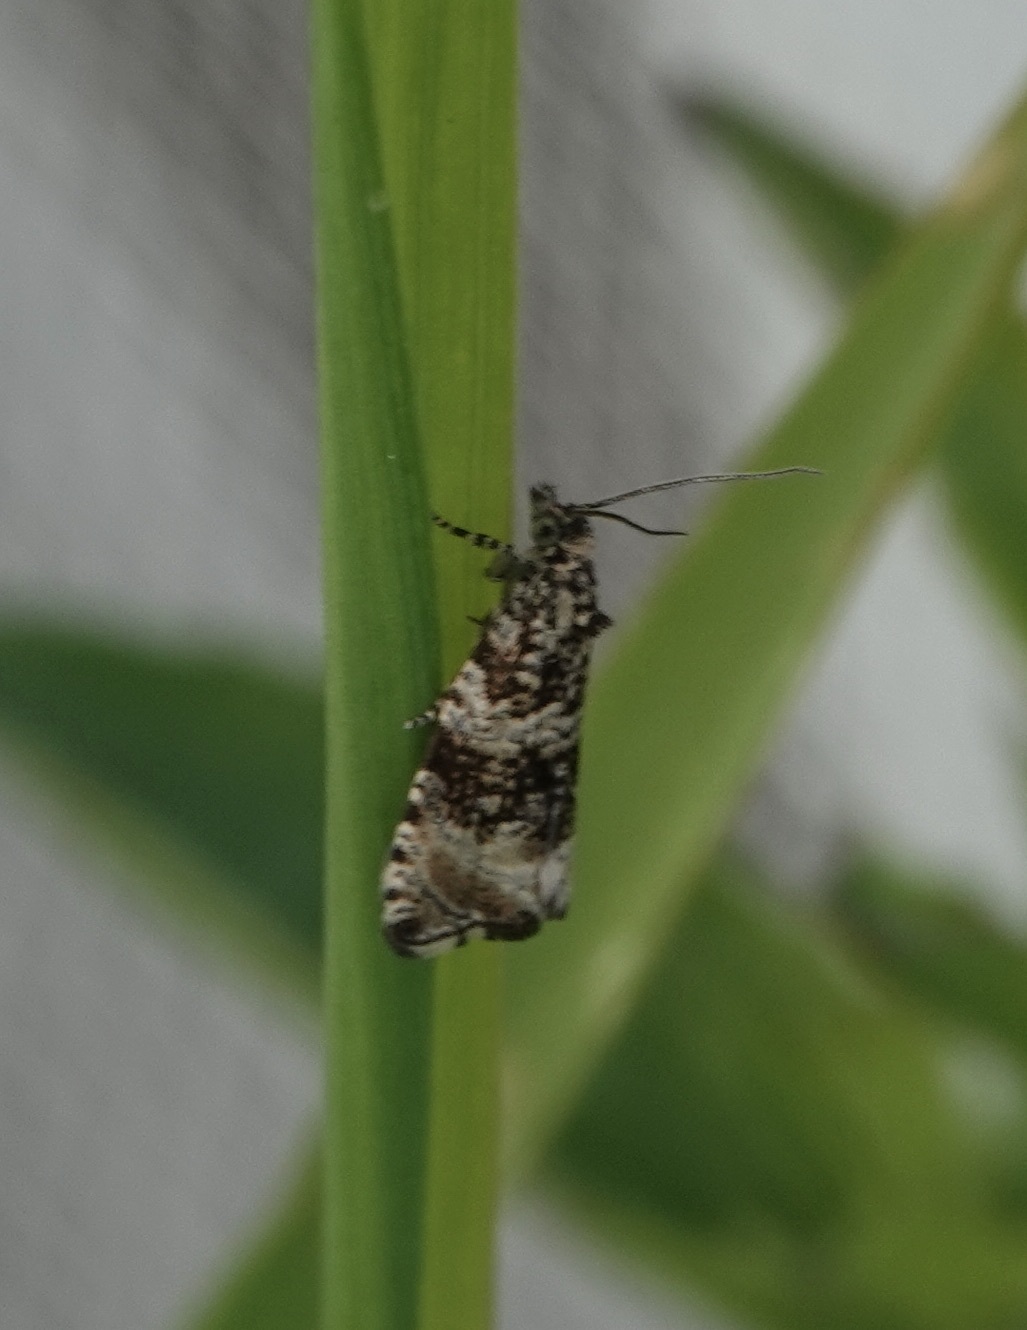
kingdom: Animalia
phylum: Arthropoda
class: Insecta
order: Lepidoptera
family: Tortricidae
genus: Syricoris
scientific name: Syricoris lacunana
